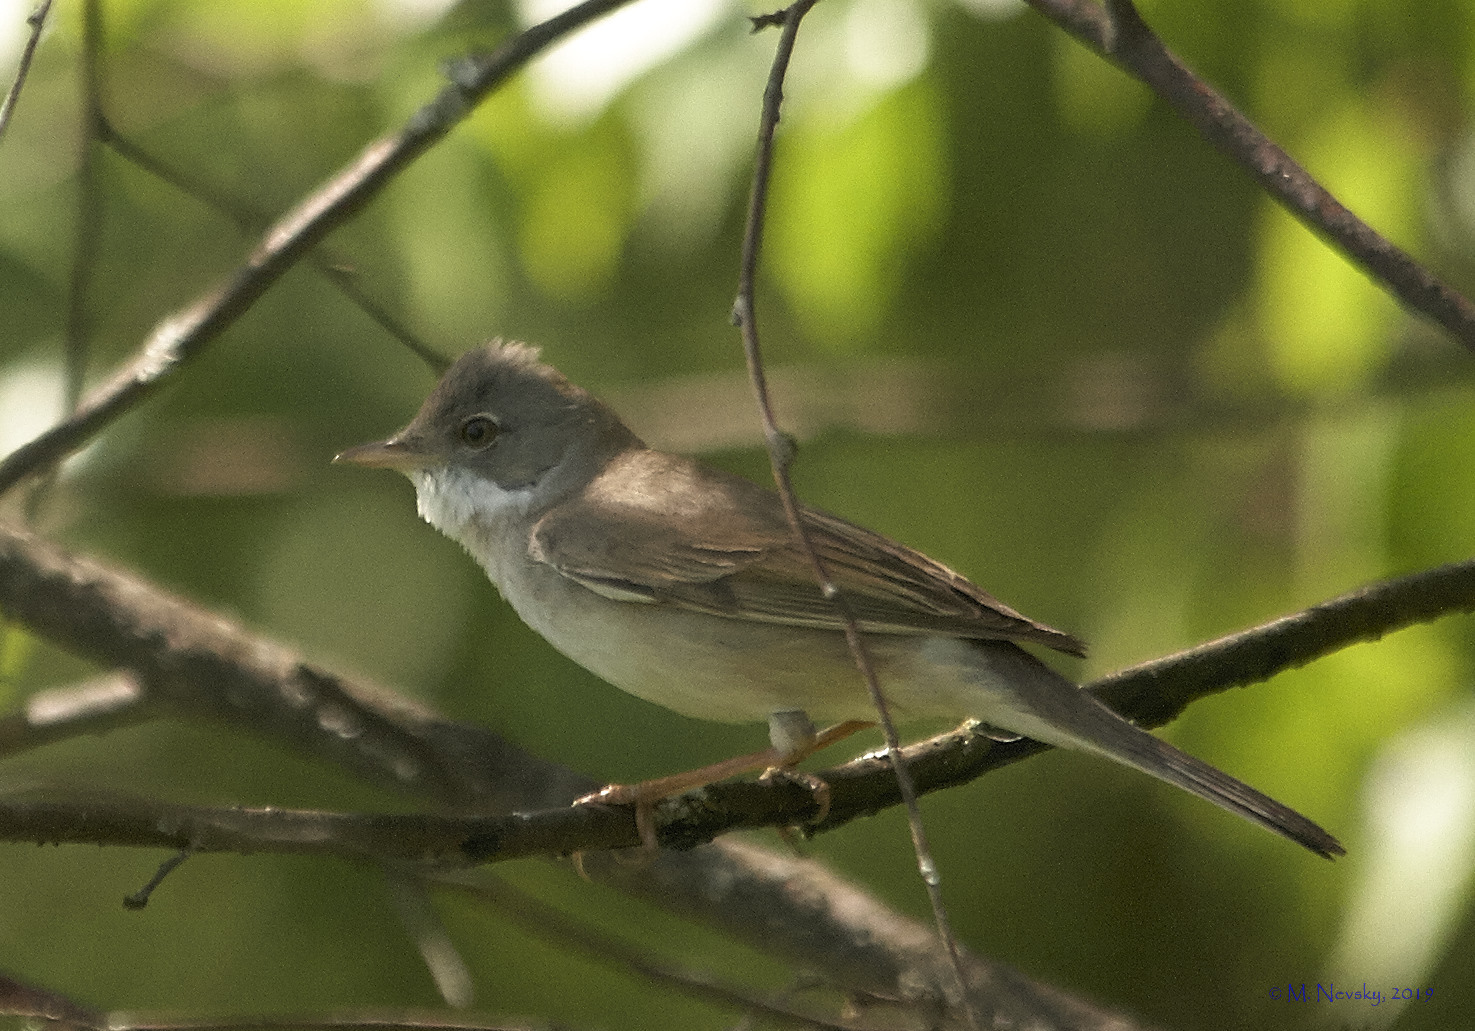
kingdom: Animalia
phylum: Chordata
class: Aves
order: Passeriformes
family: Sylviidae
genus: Sylvia
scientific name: Sylvia communis
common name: Common whitethroat
